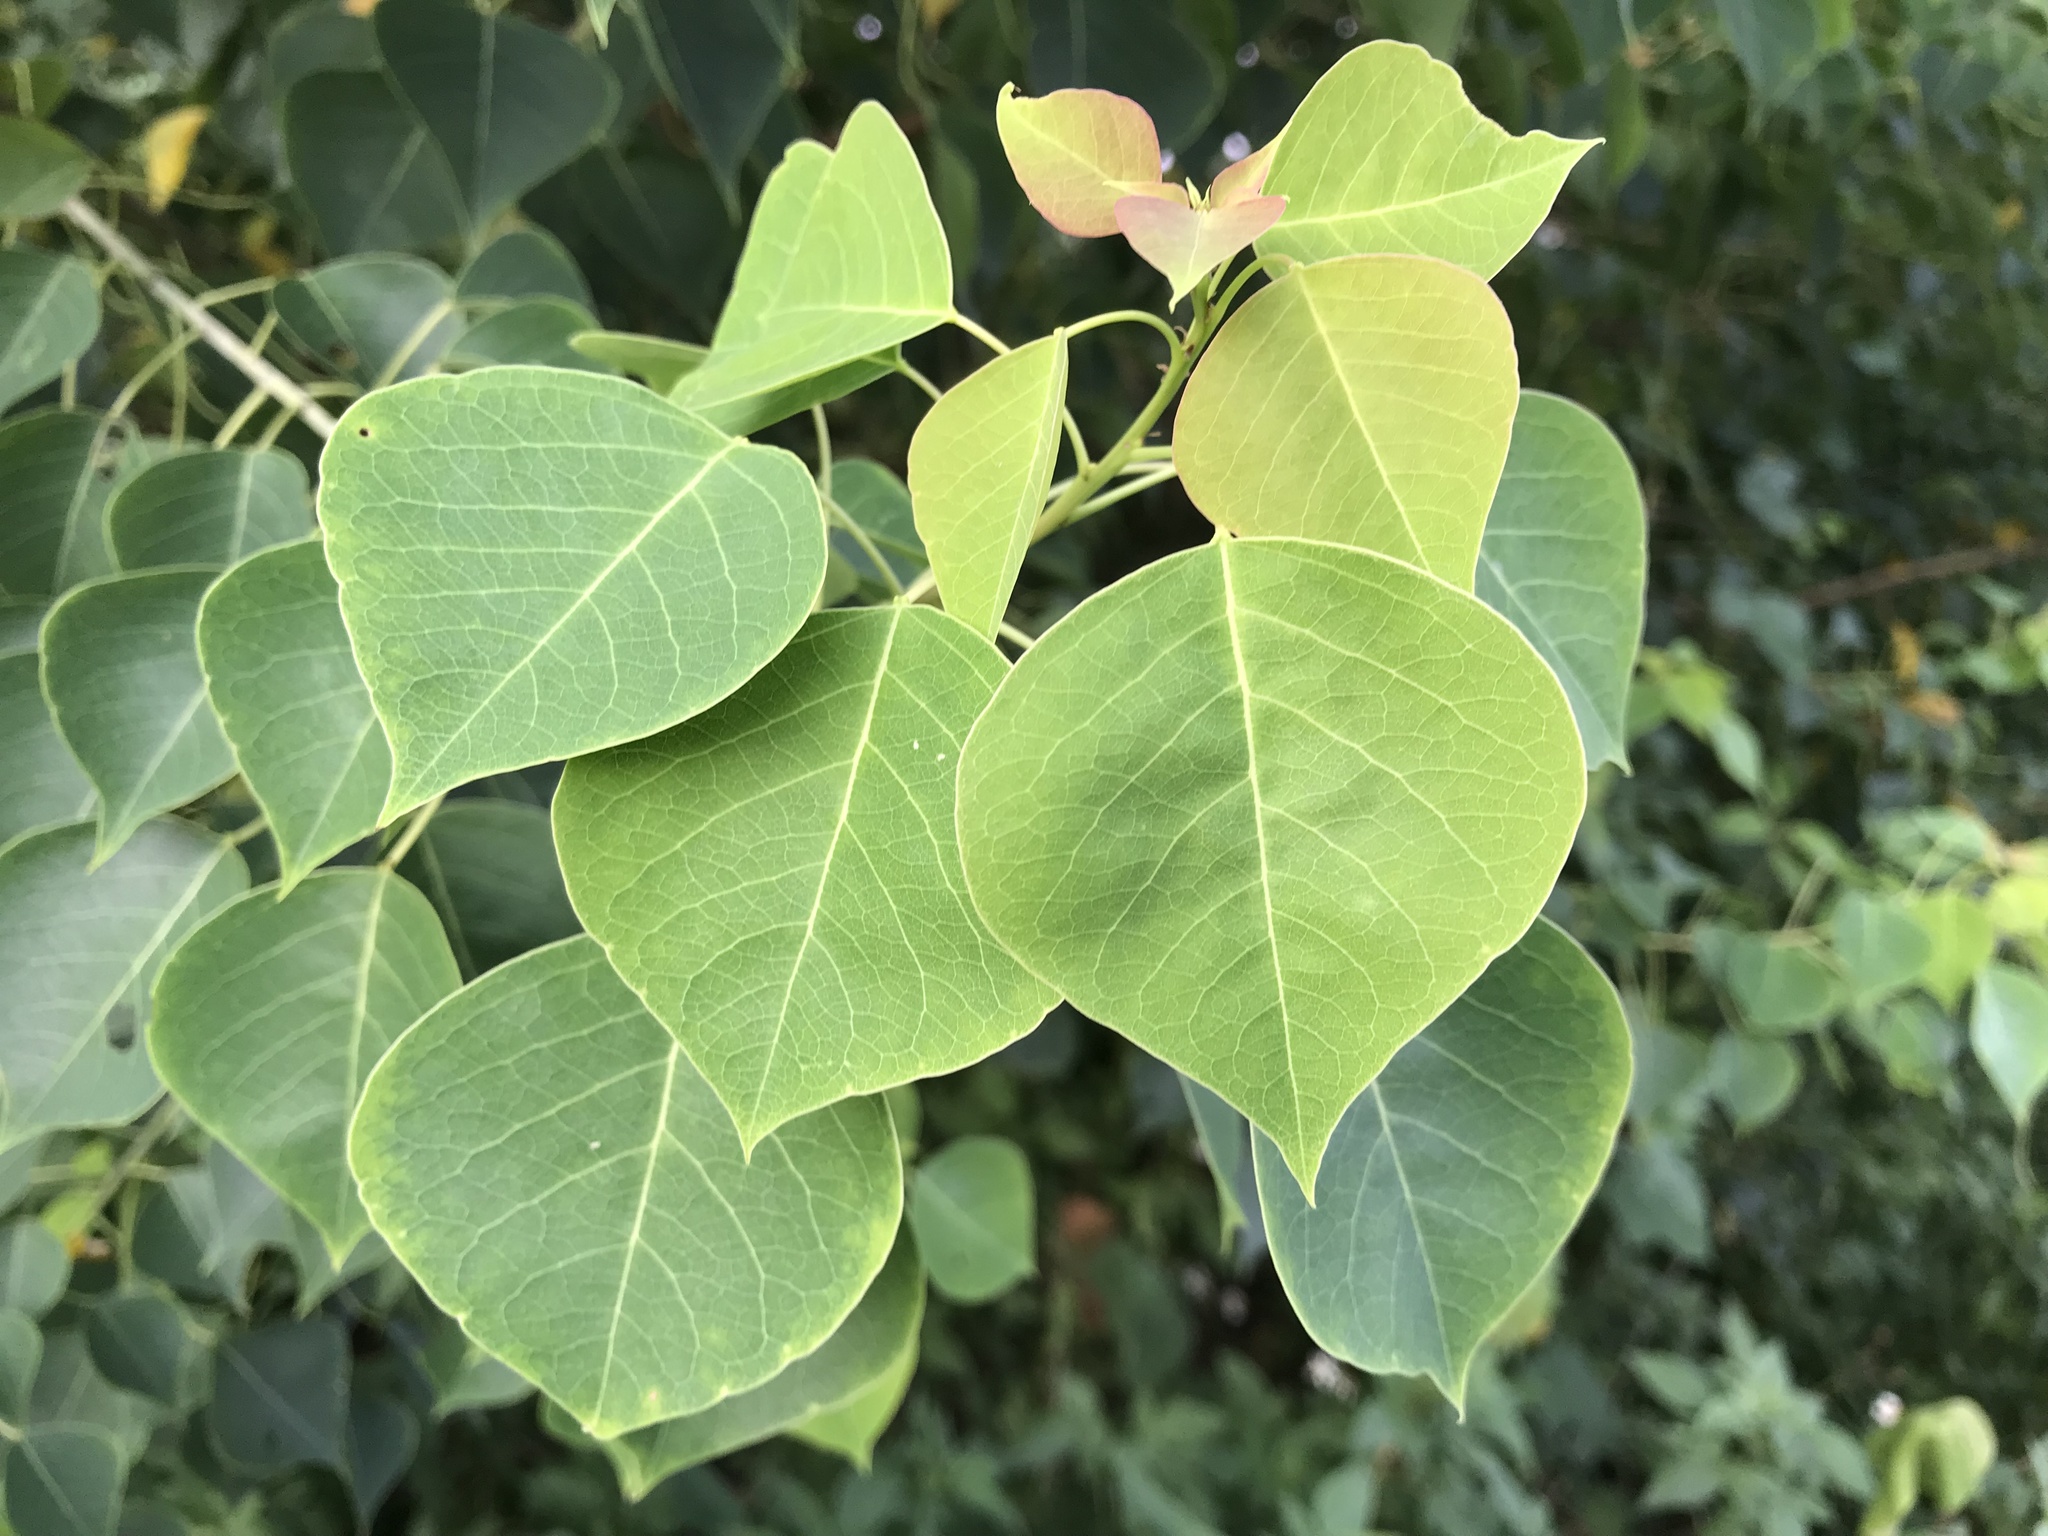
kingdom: Plantae
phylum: Tracheophyta
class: Magnoliopsida
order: Malpighiales
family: Euphorbiaceae
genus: Triadica
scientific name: Triadica sebifera
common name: Chinese tallow
